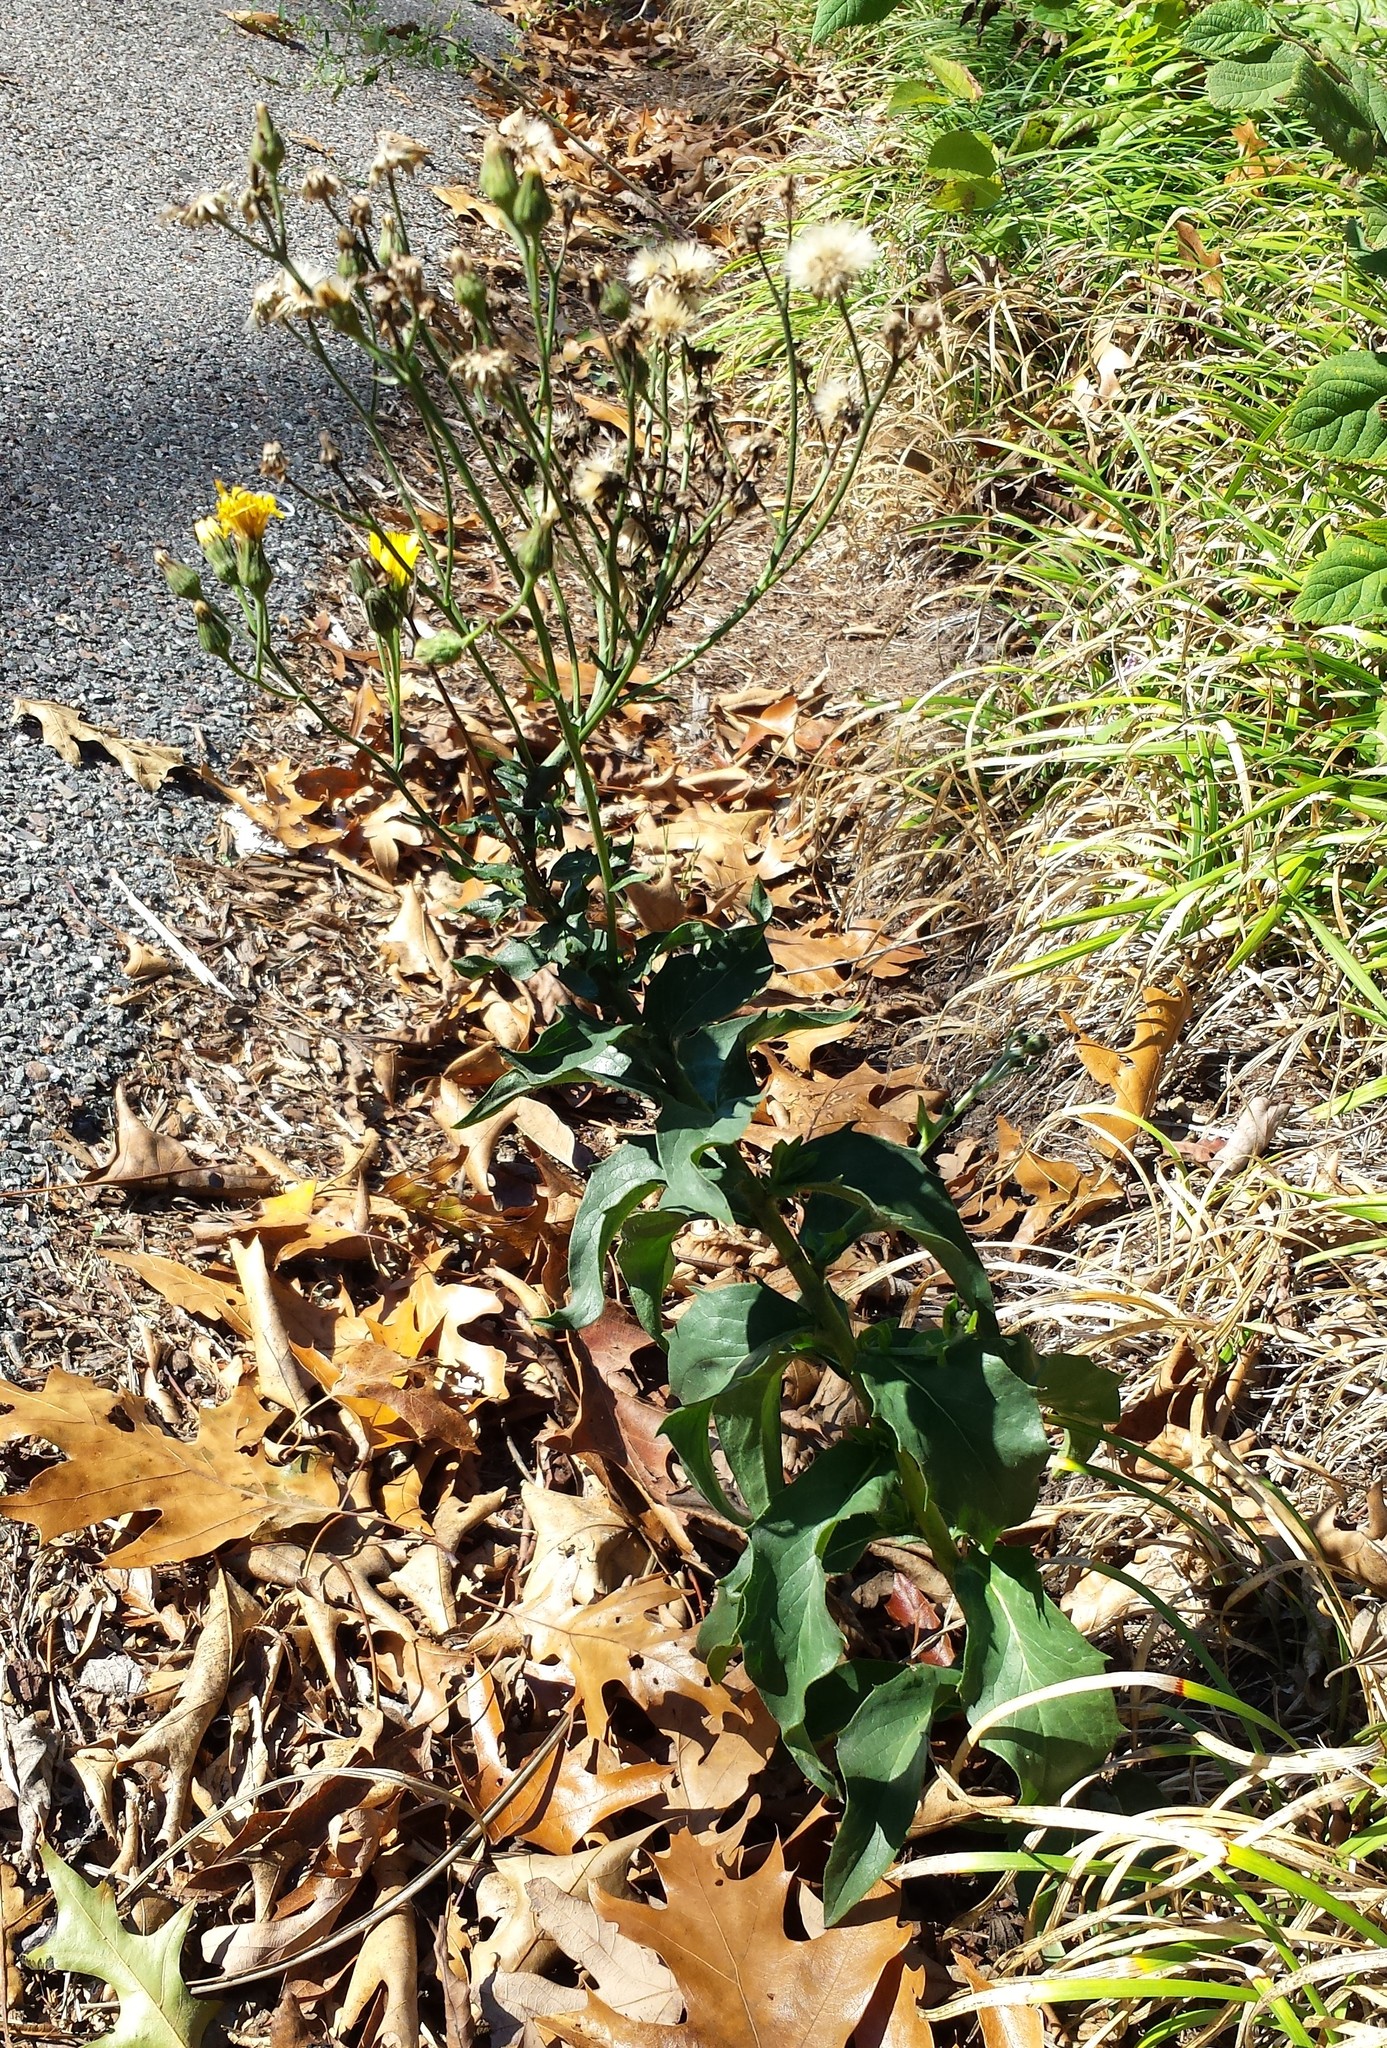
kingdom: Plantae
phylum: Tracheophyta
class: Magnoliopsida
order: Asterales
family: Asteraceae
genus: Hieracium
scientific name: Hieracium umbellatum
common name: Northern hawkweed
